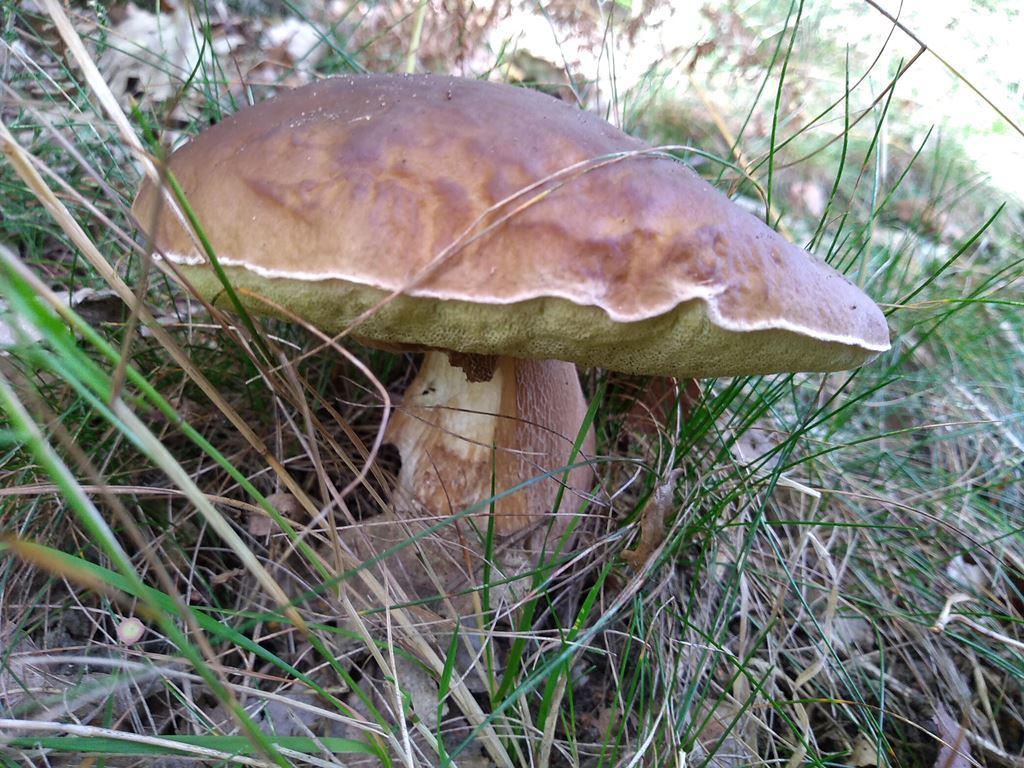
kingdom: Fungi
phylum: Basidiomycota
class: Agaricomycetes
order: Boletales
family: Boletaceae
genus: Boletus
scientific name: Boletus edulis
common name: Cep
